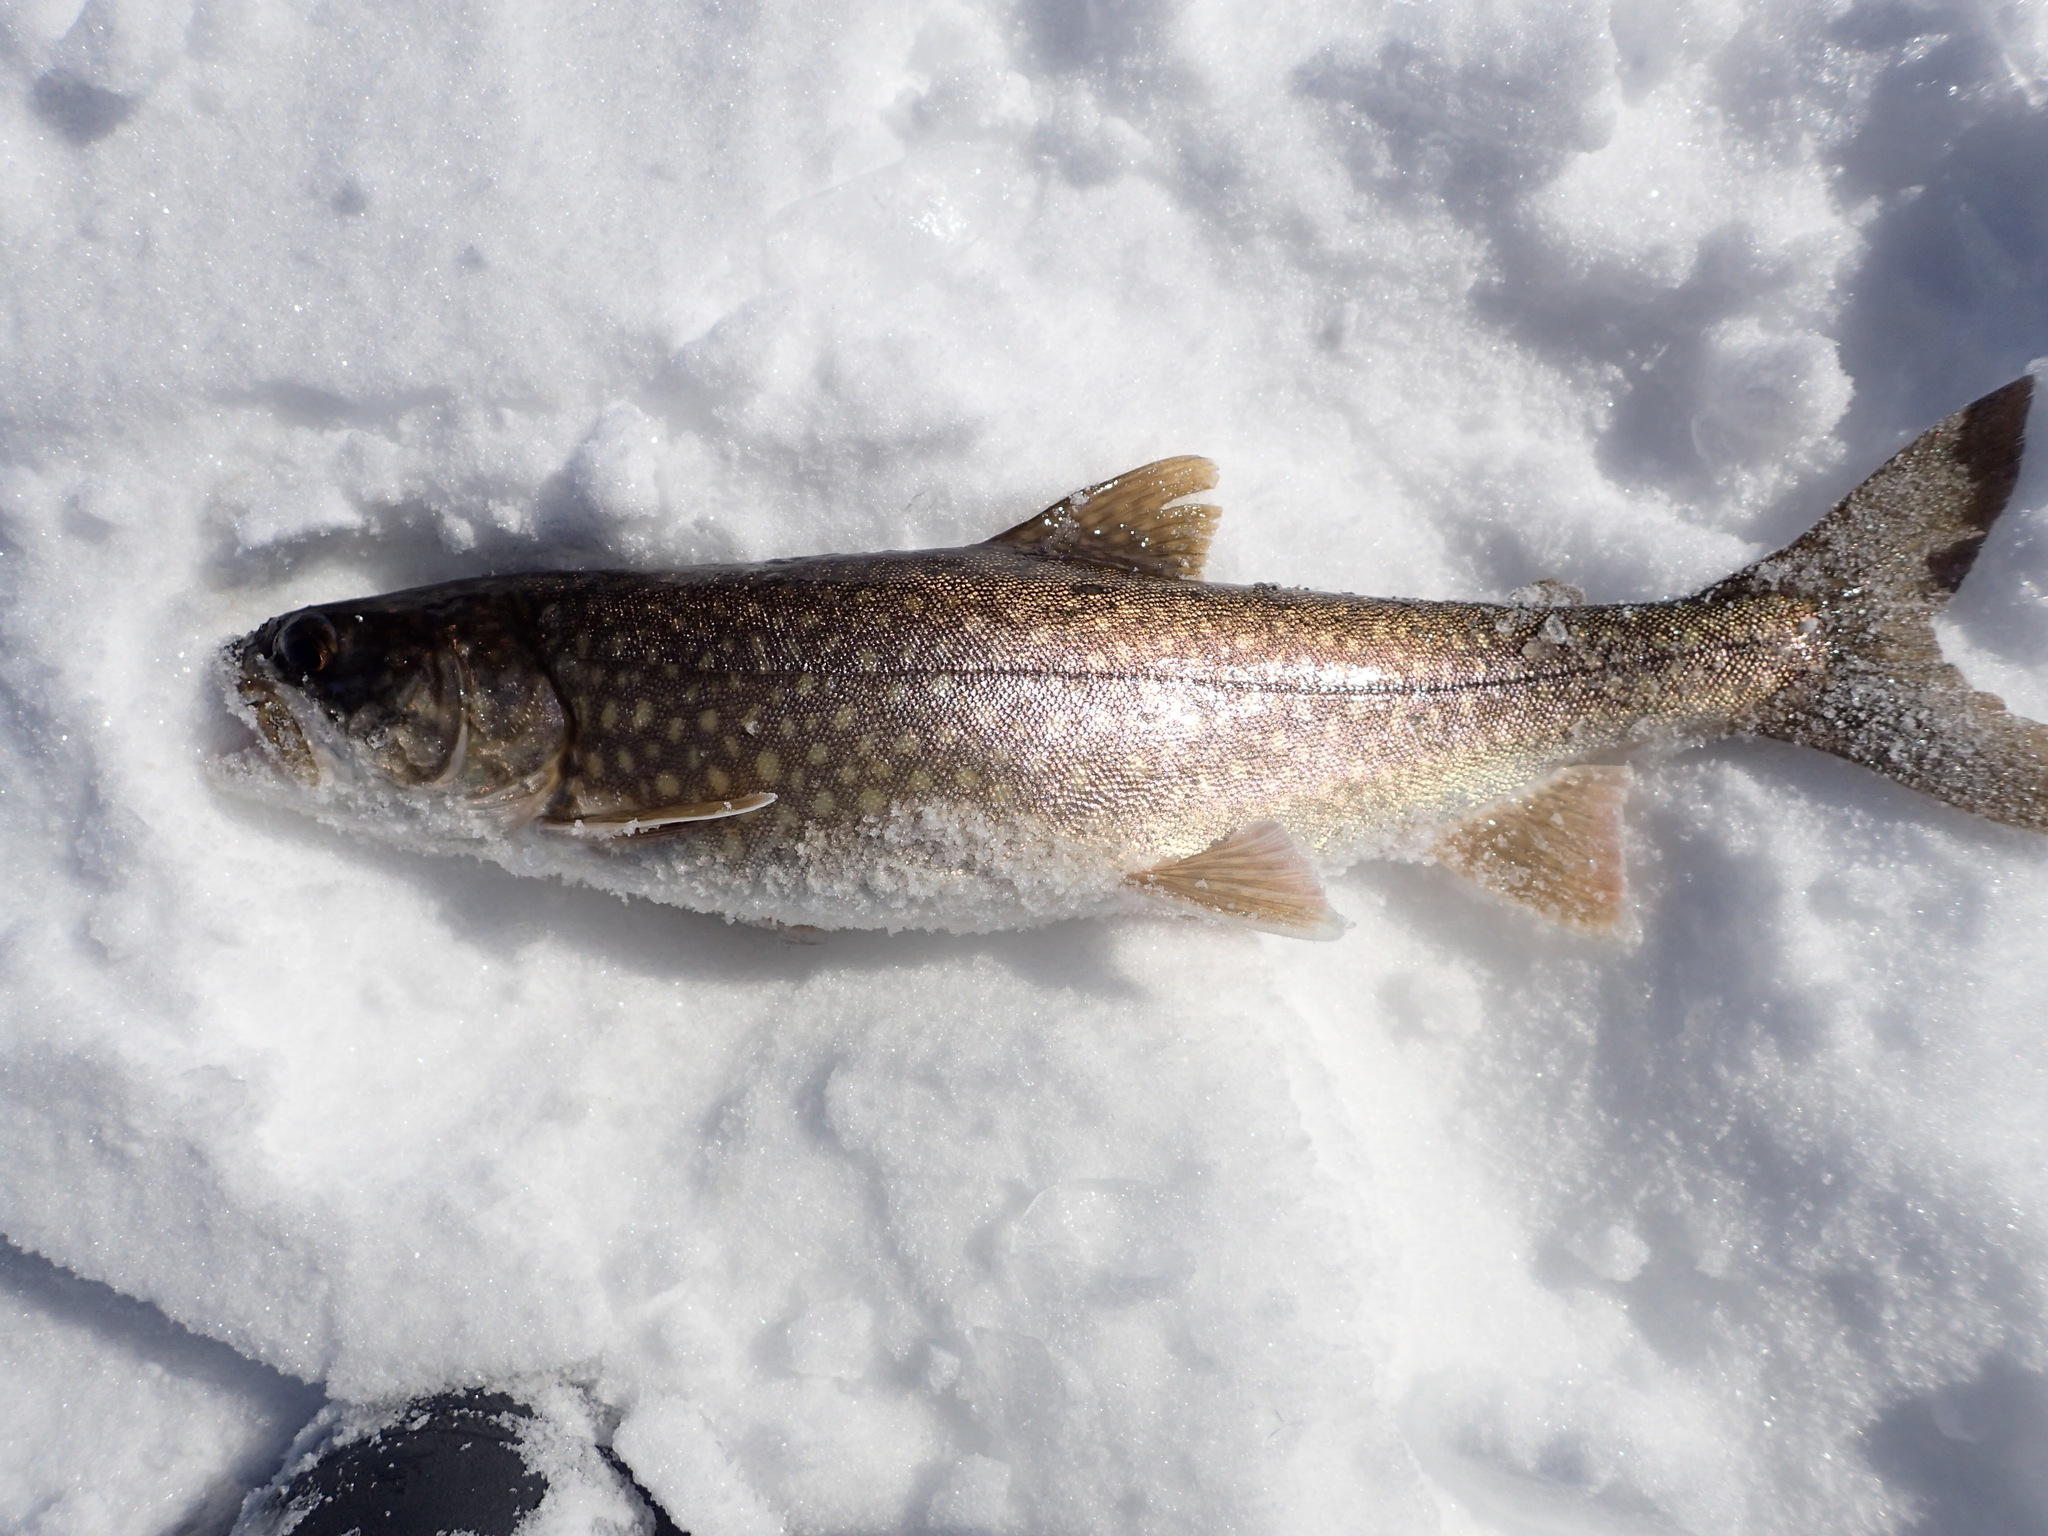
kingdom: Animalia
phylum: Chordata
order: Salmoniformes
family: Salmonidae
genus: Salvelinus
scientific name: Salvelinus namaycush
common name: American lake charr
